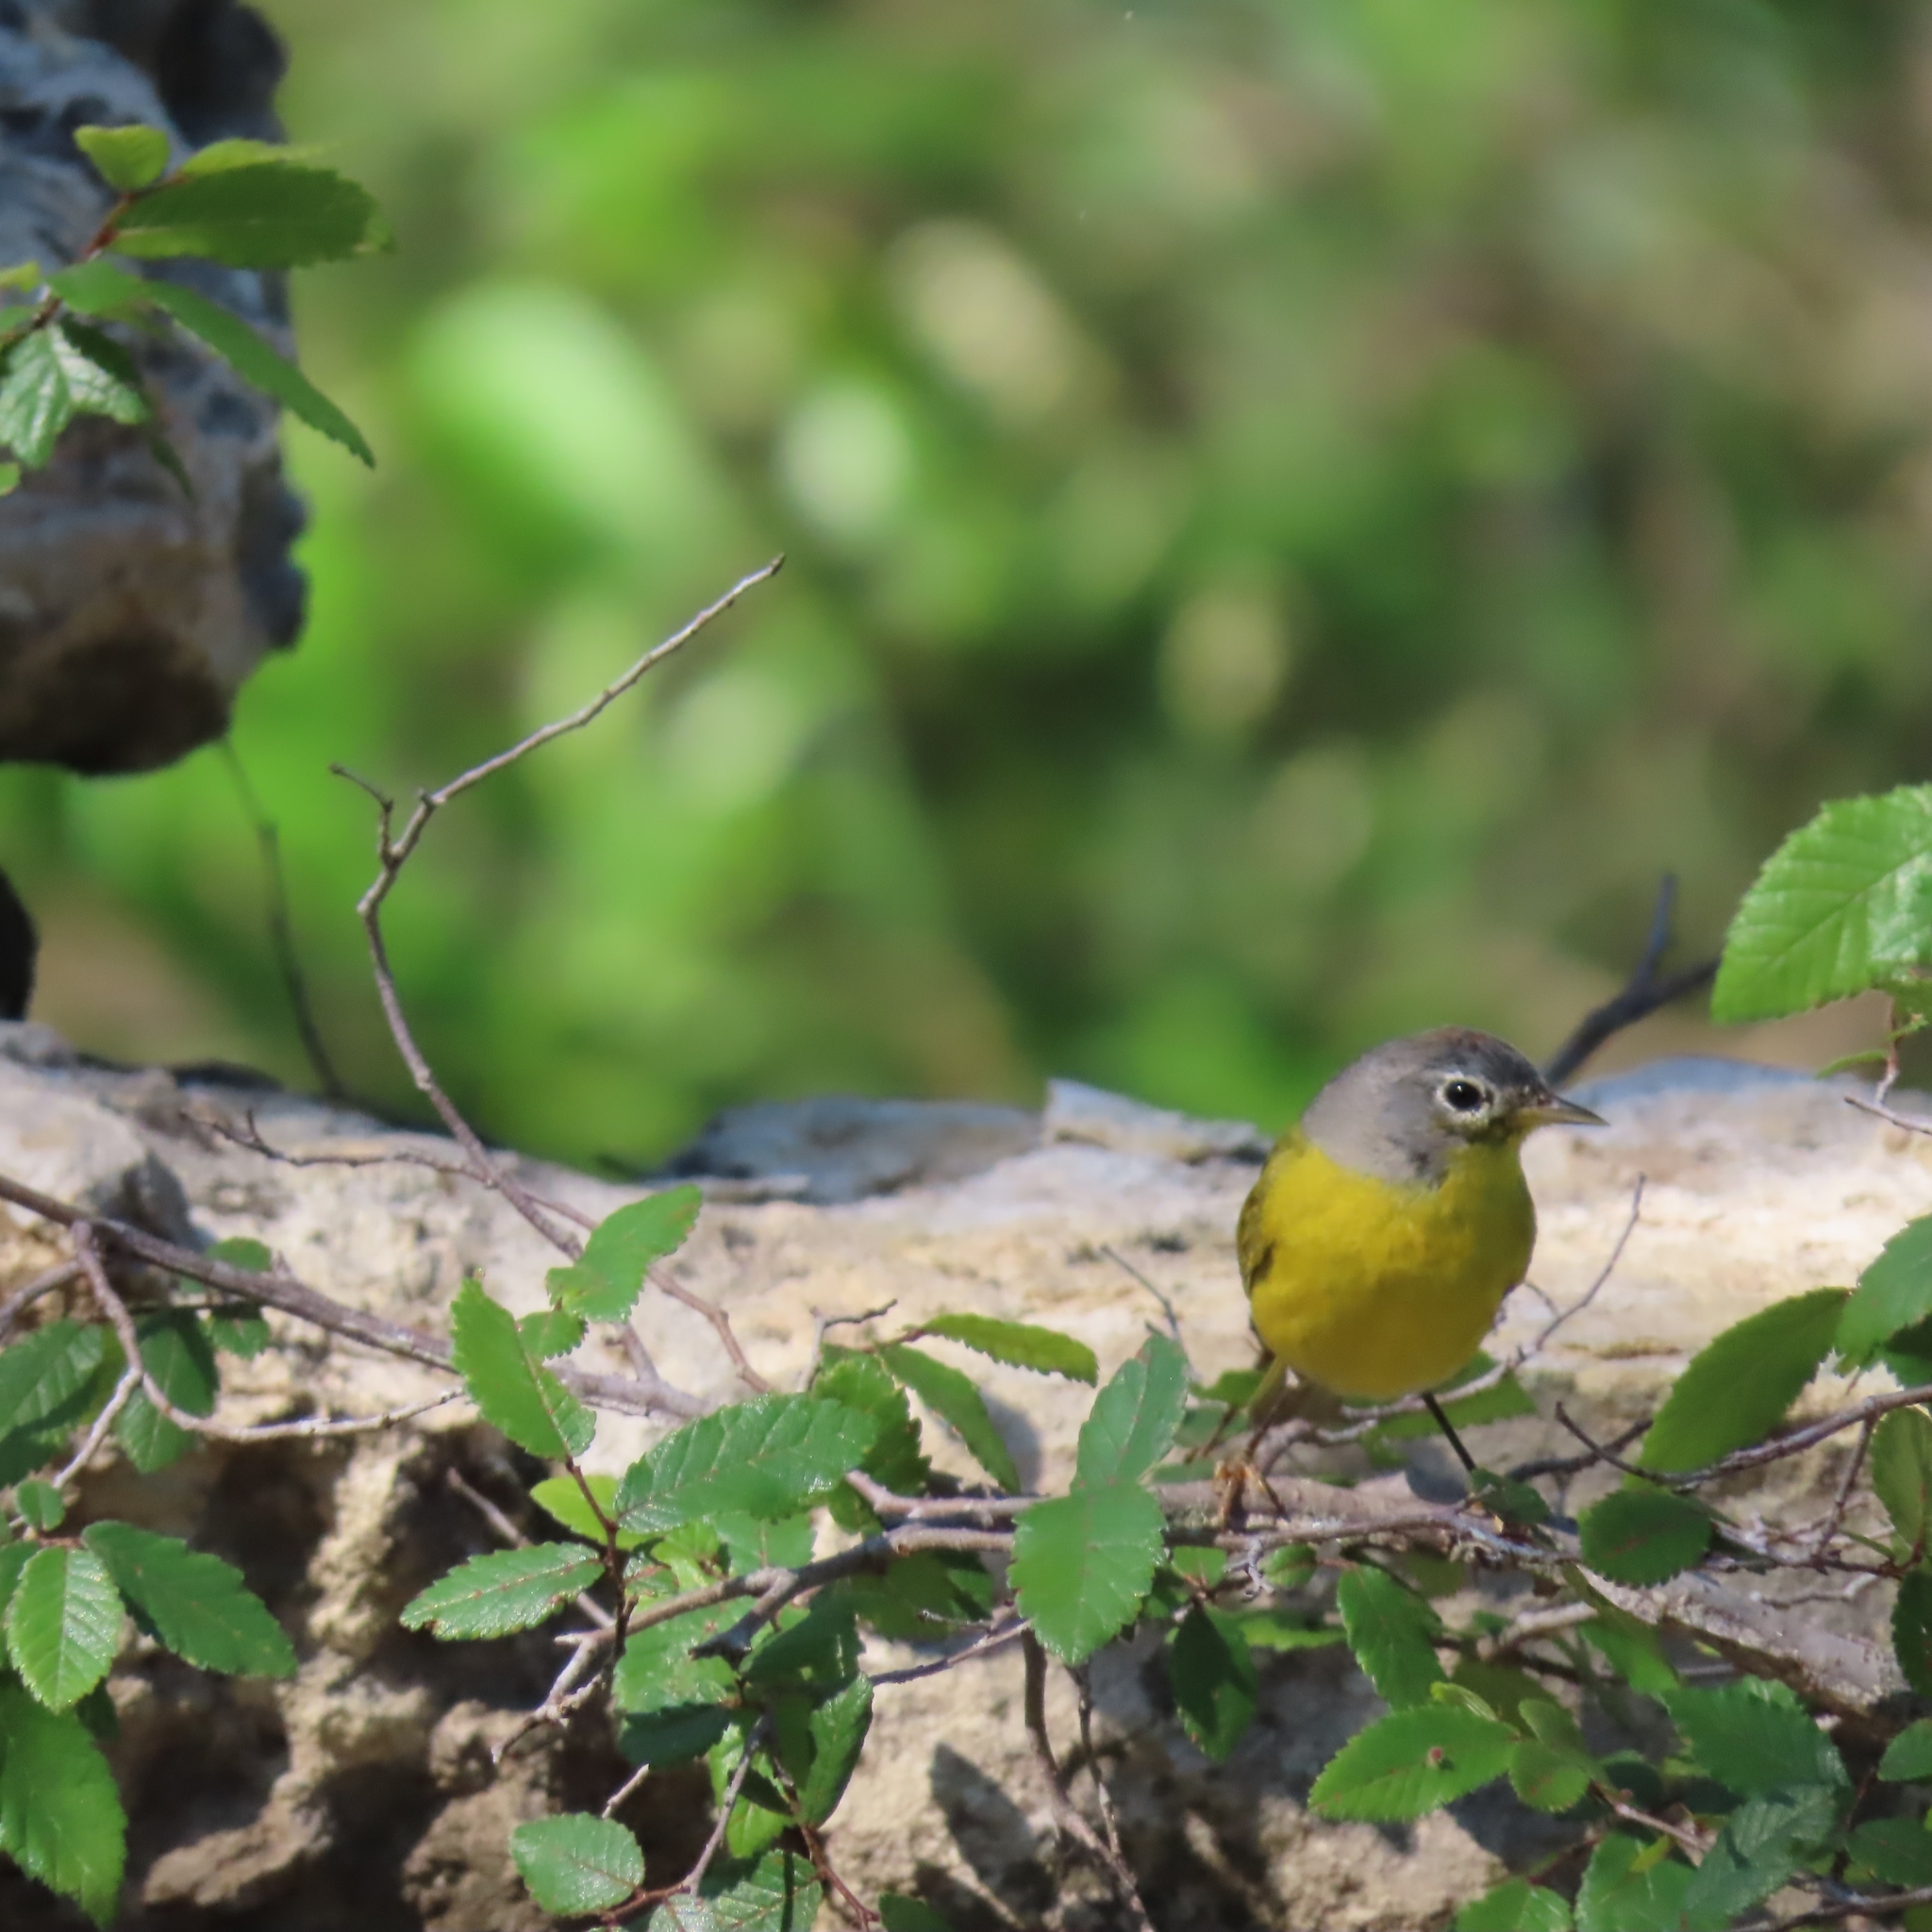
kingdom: Animalia
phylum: Chordata
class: Aves
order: Passeriformes
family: Parulidae
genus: Leiothlypis
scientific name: Leiothlypis ruficapilla
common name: Nashville warbler
